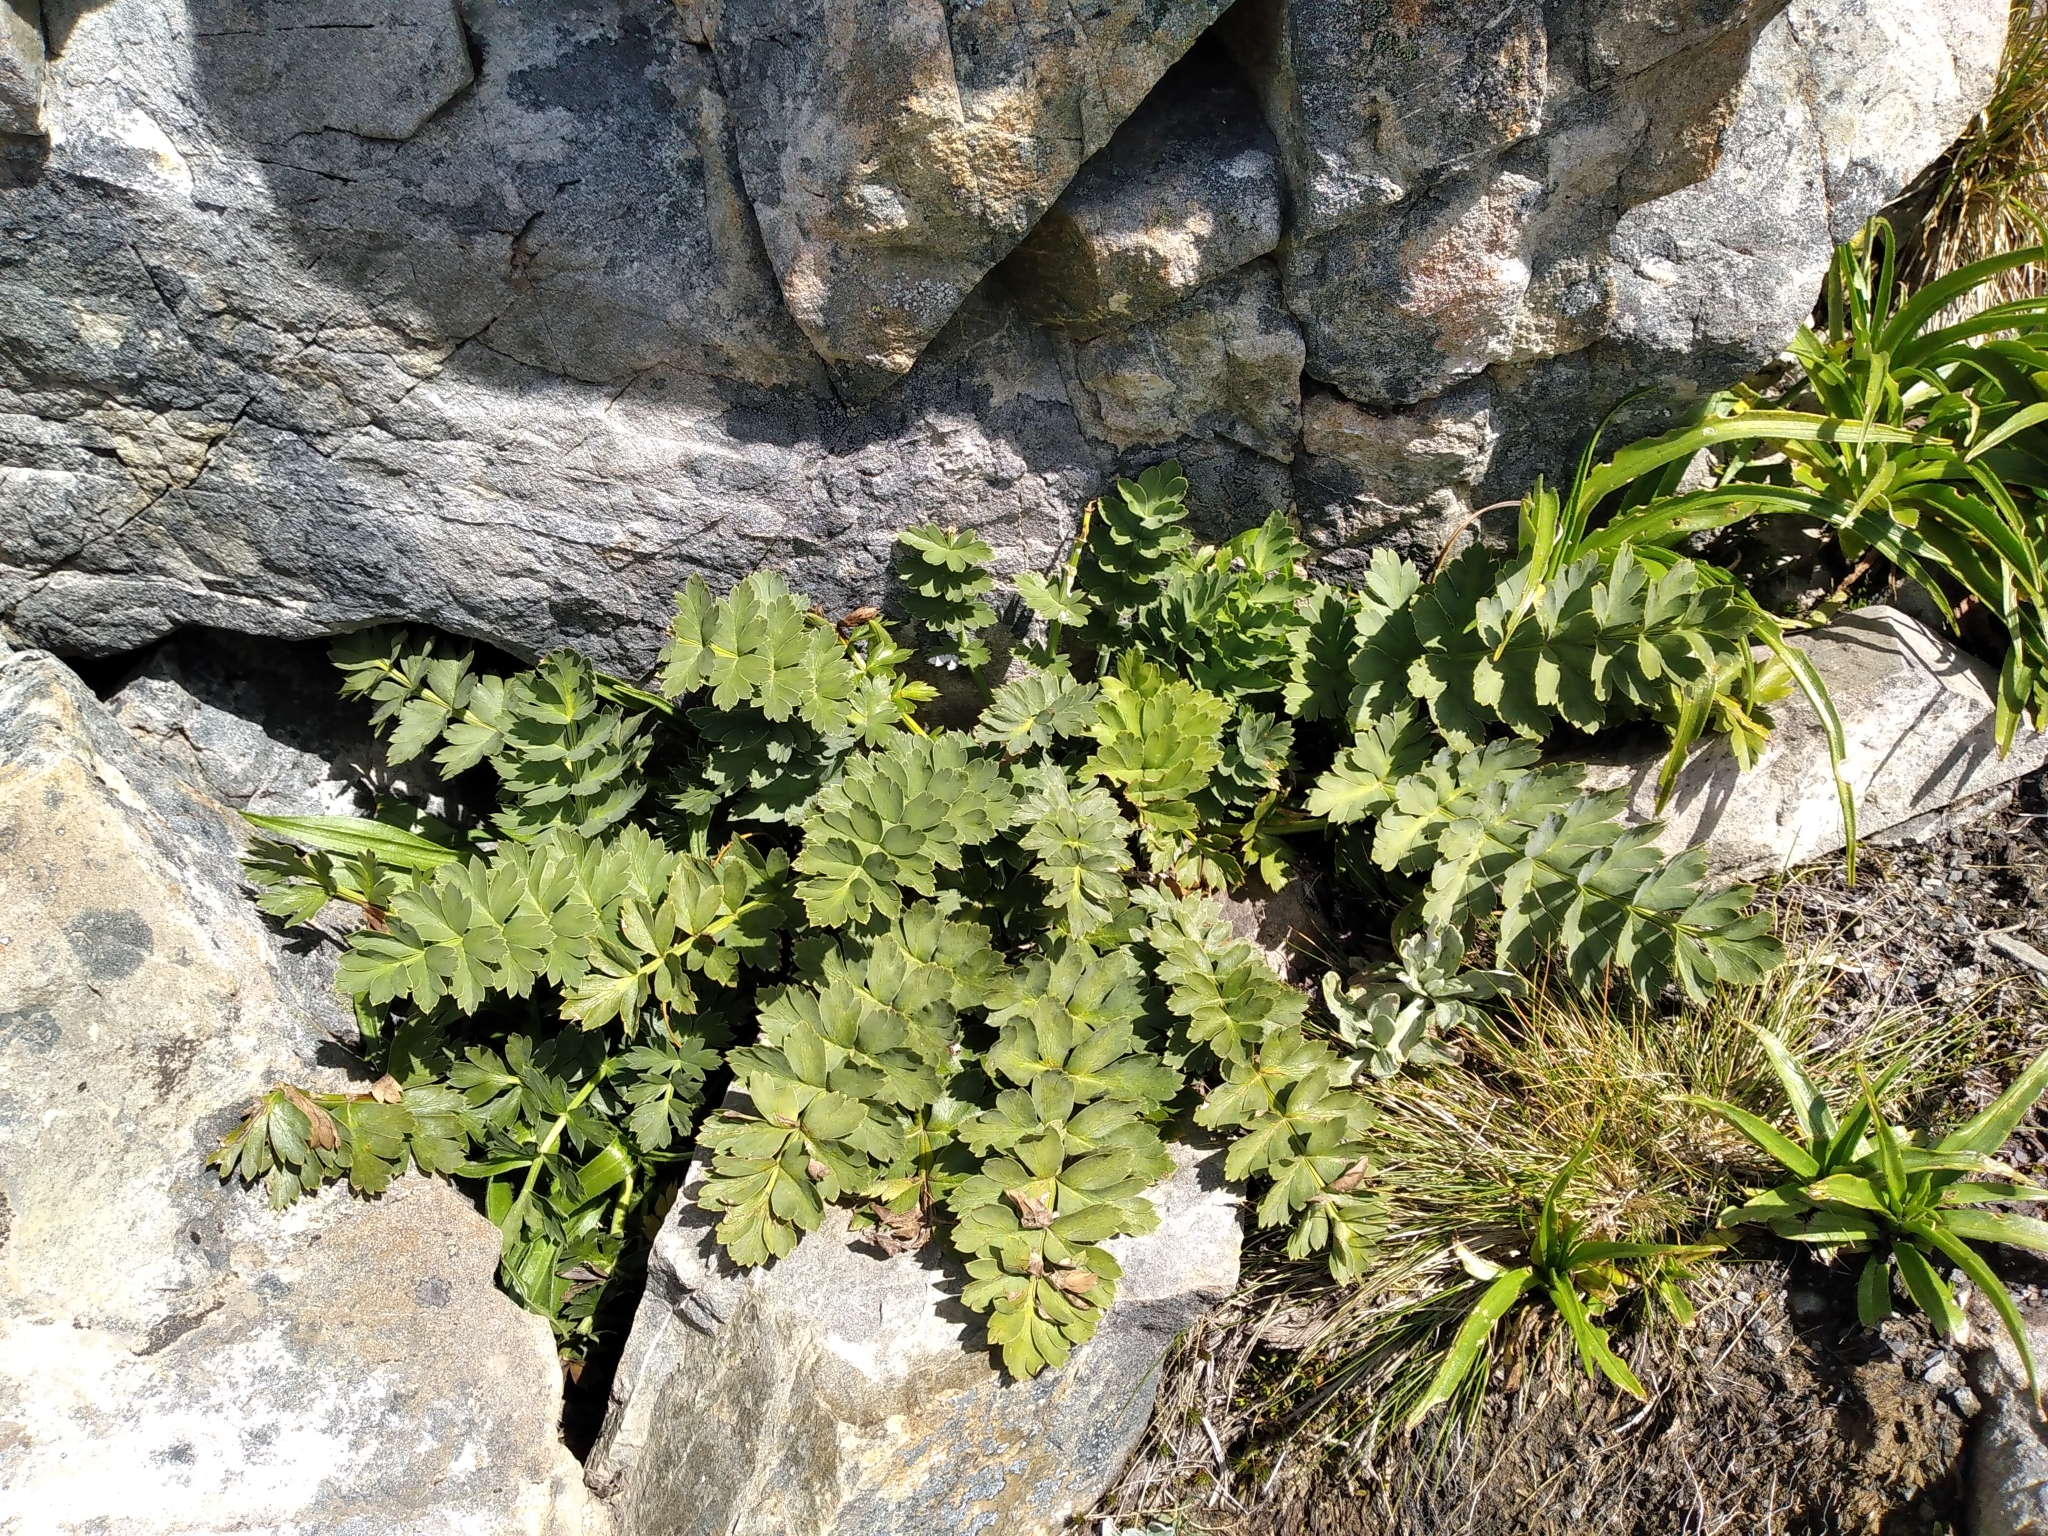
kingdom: Plantae
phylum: Tracheophyta
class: Magnoliopsida
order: Apiales
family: Apiaceae
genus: Anisotome
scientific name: Anisotome pilifera
